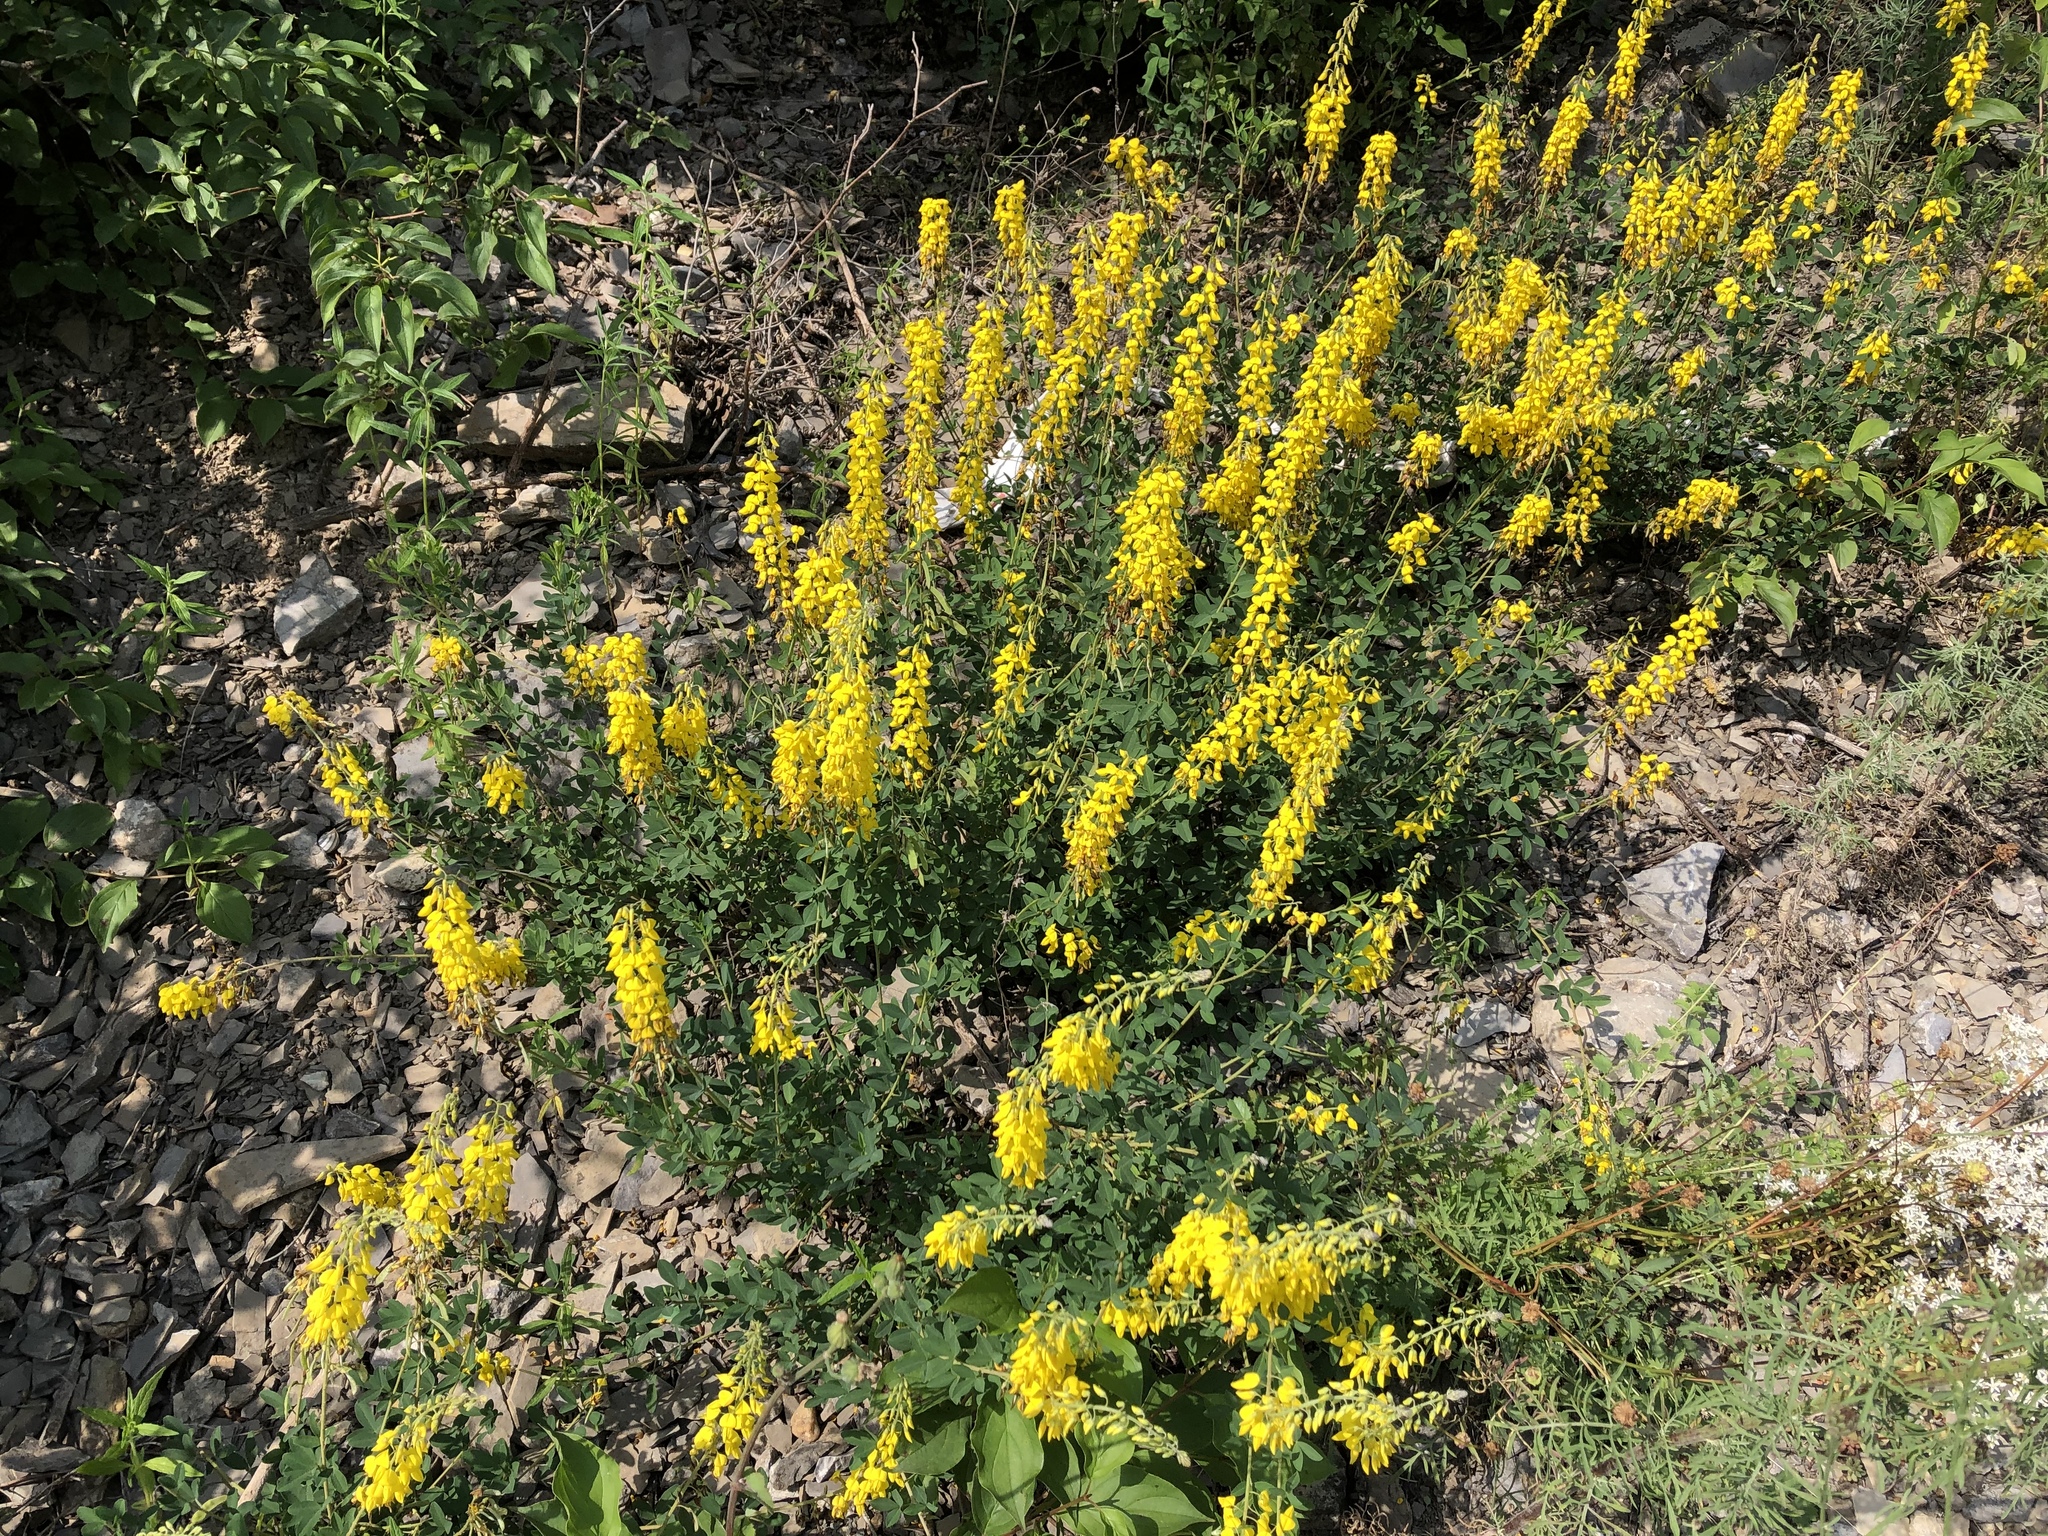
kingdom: Plantae
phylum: Tracheophyta
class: Magnoliopsida
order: Fabales
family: Fabaceae
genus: Cytisus
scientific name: Cytisus nigricans
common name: Black broom
